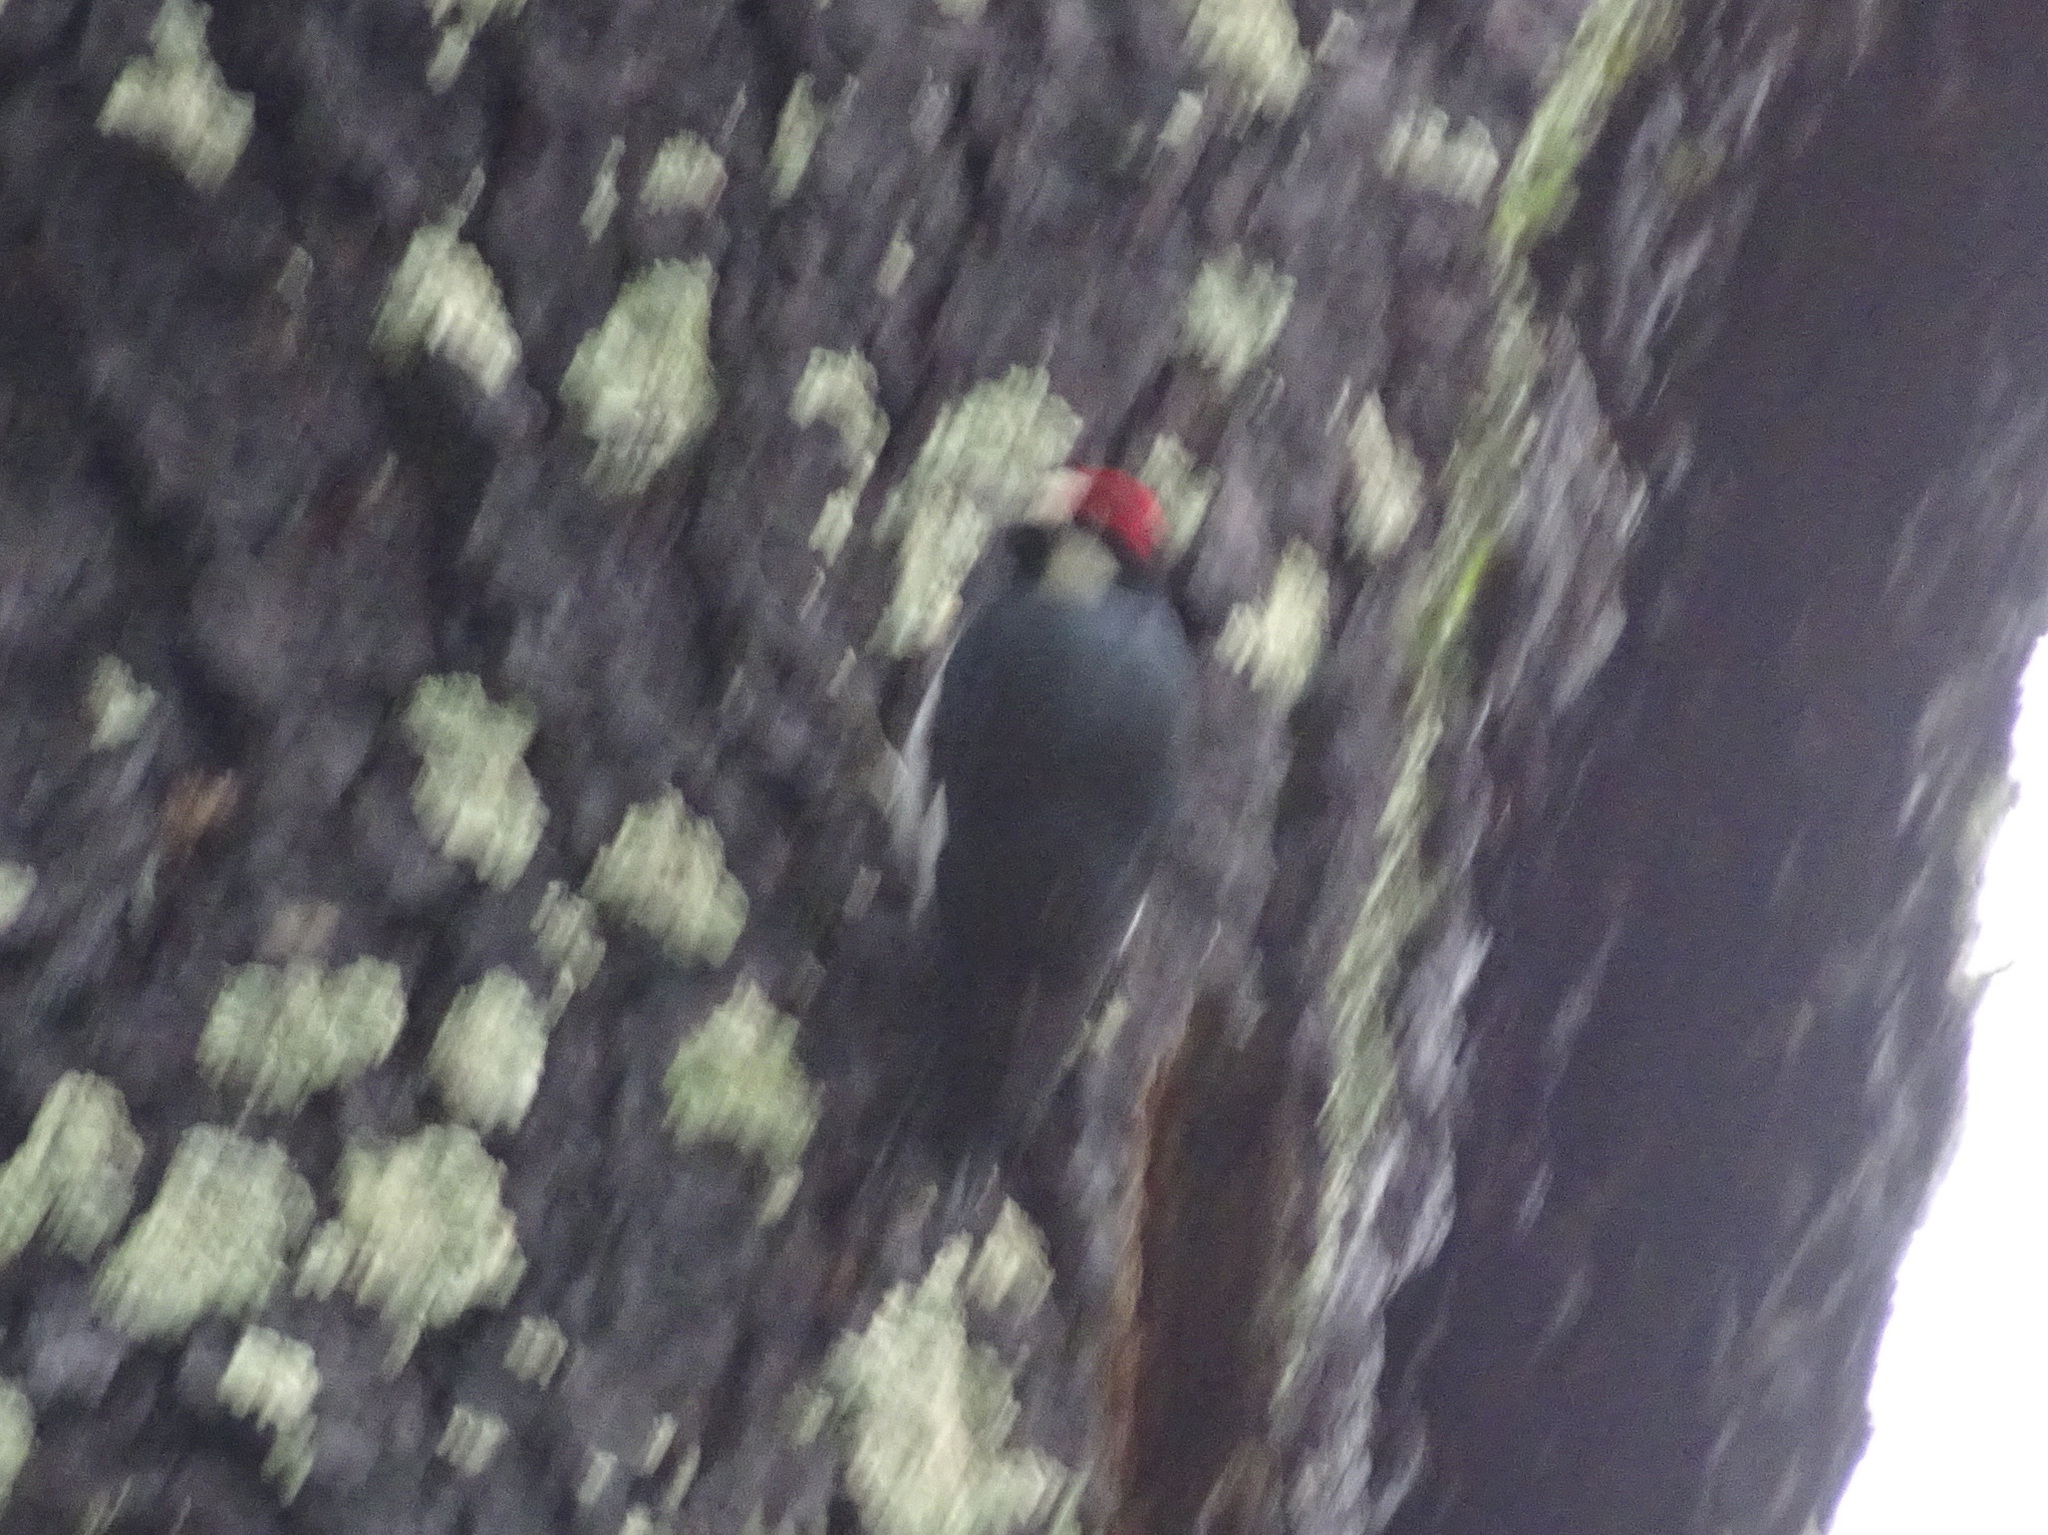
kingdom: Animalia
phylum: Chordata
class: Aves
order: Piciformes
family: Picidae
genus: Melanerpes
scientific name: Melanerpes formicivorus
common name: Acorn woodpecker
